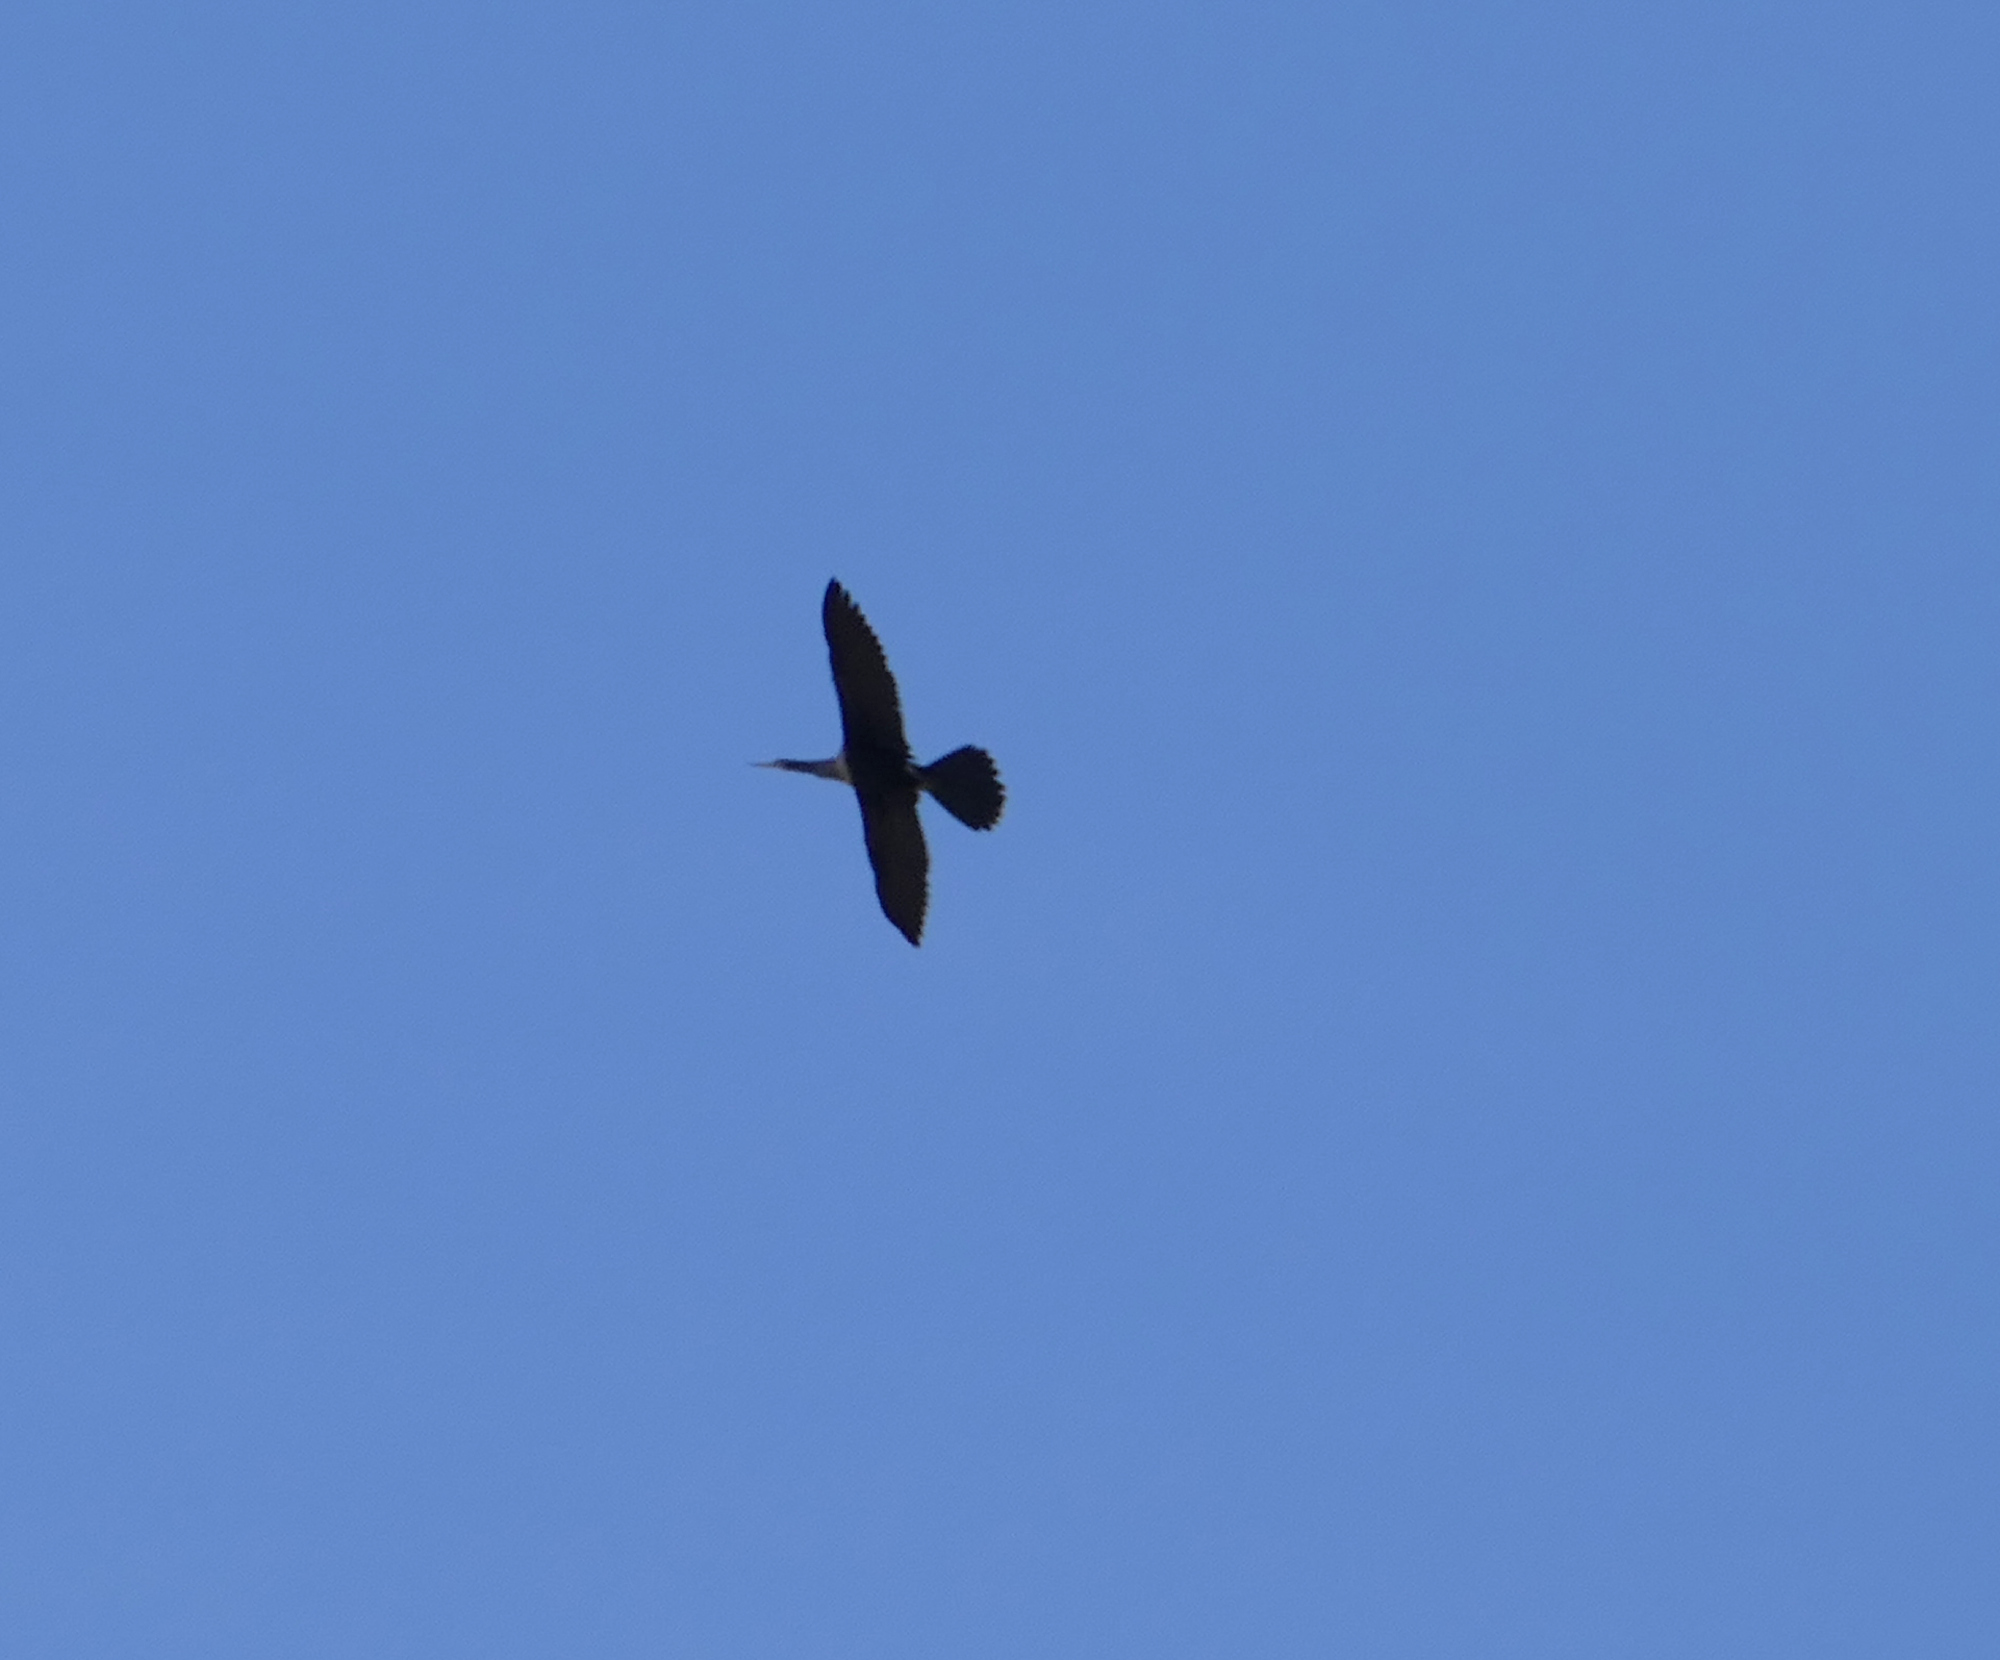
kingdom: Animalia
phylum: Chordata
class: Aves
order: Suliformes
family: Anhingidae
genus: Anhinga
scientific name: Anhinga anhinga
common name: Anhinga
